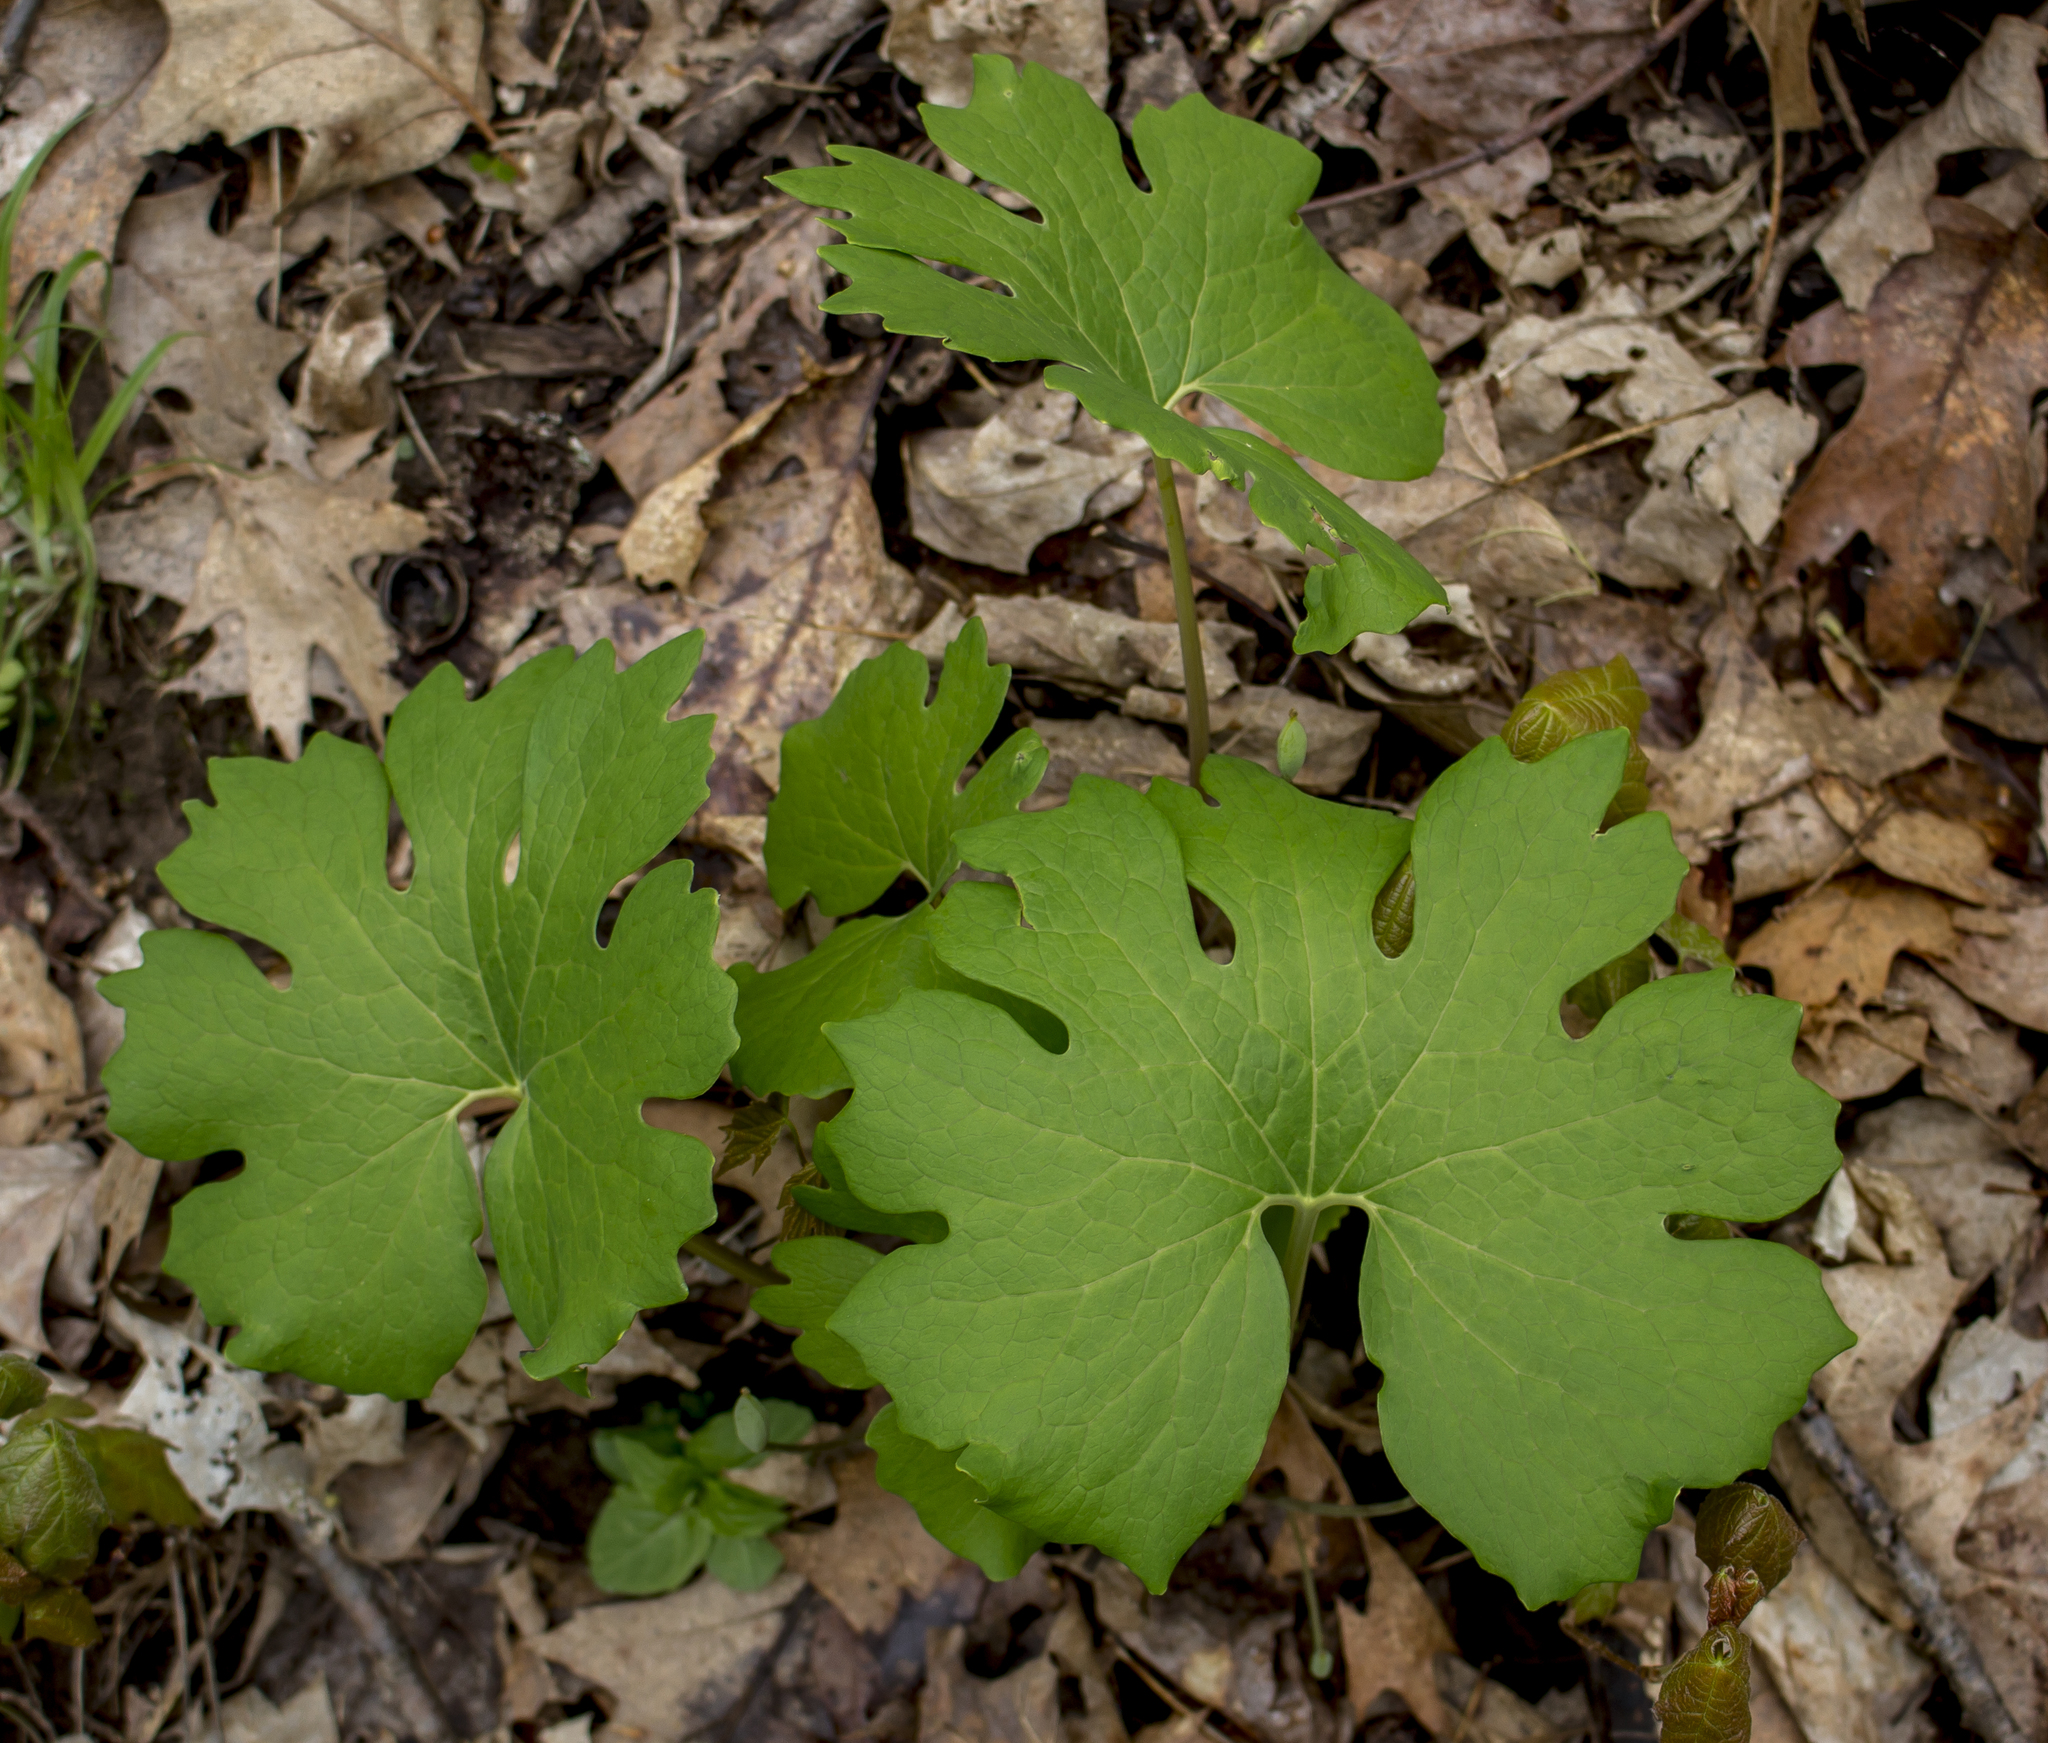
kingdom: Plantae
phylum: Tracheophyta
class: Magnoliopsida
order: Ranunculales
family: Papaveraceae
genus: Sanguinaria
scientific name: Sanguinaria canadensis
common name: Bloodroot
